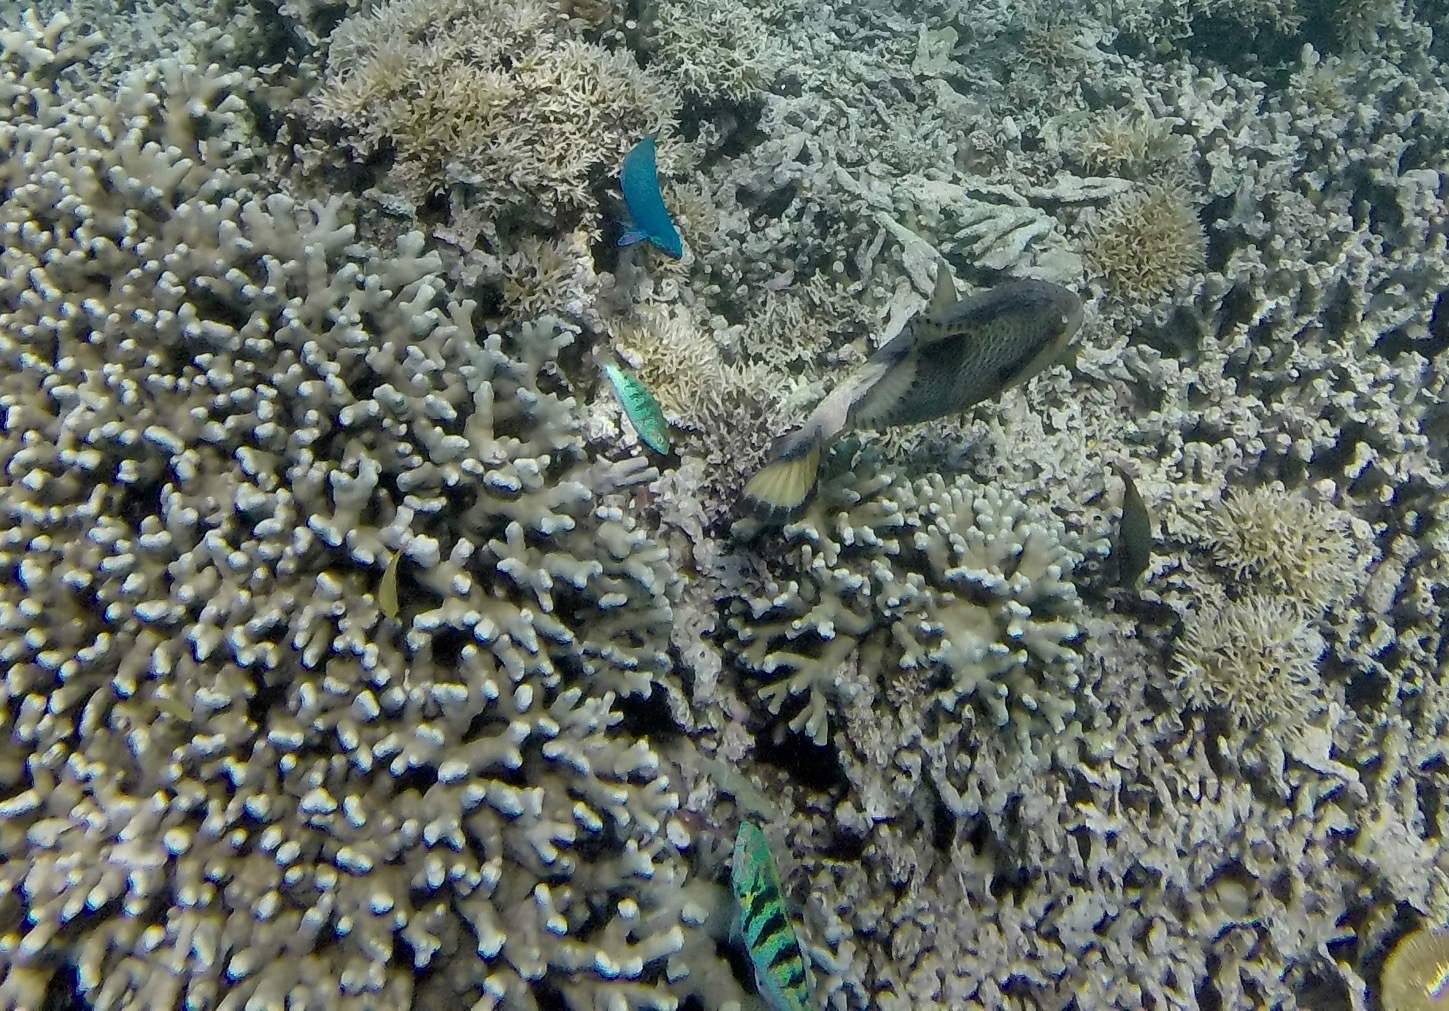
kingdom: Animalia
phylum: Chordata
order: Tetraodontiformes
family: Balistidae
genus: Balistoides
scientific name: Balistoides viridescens
